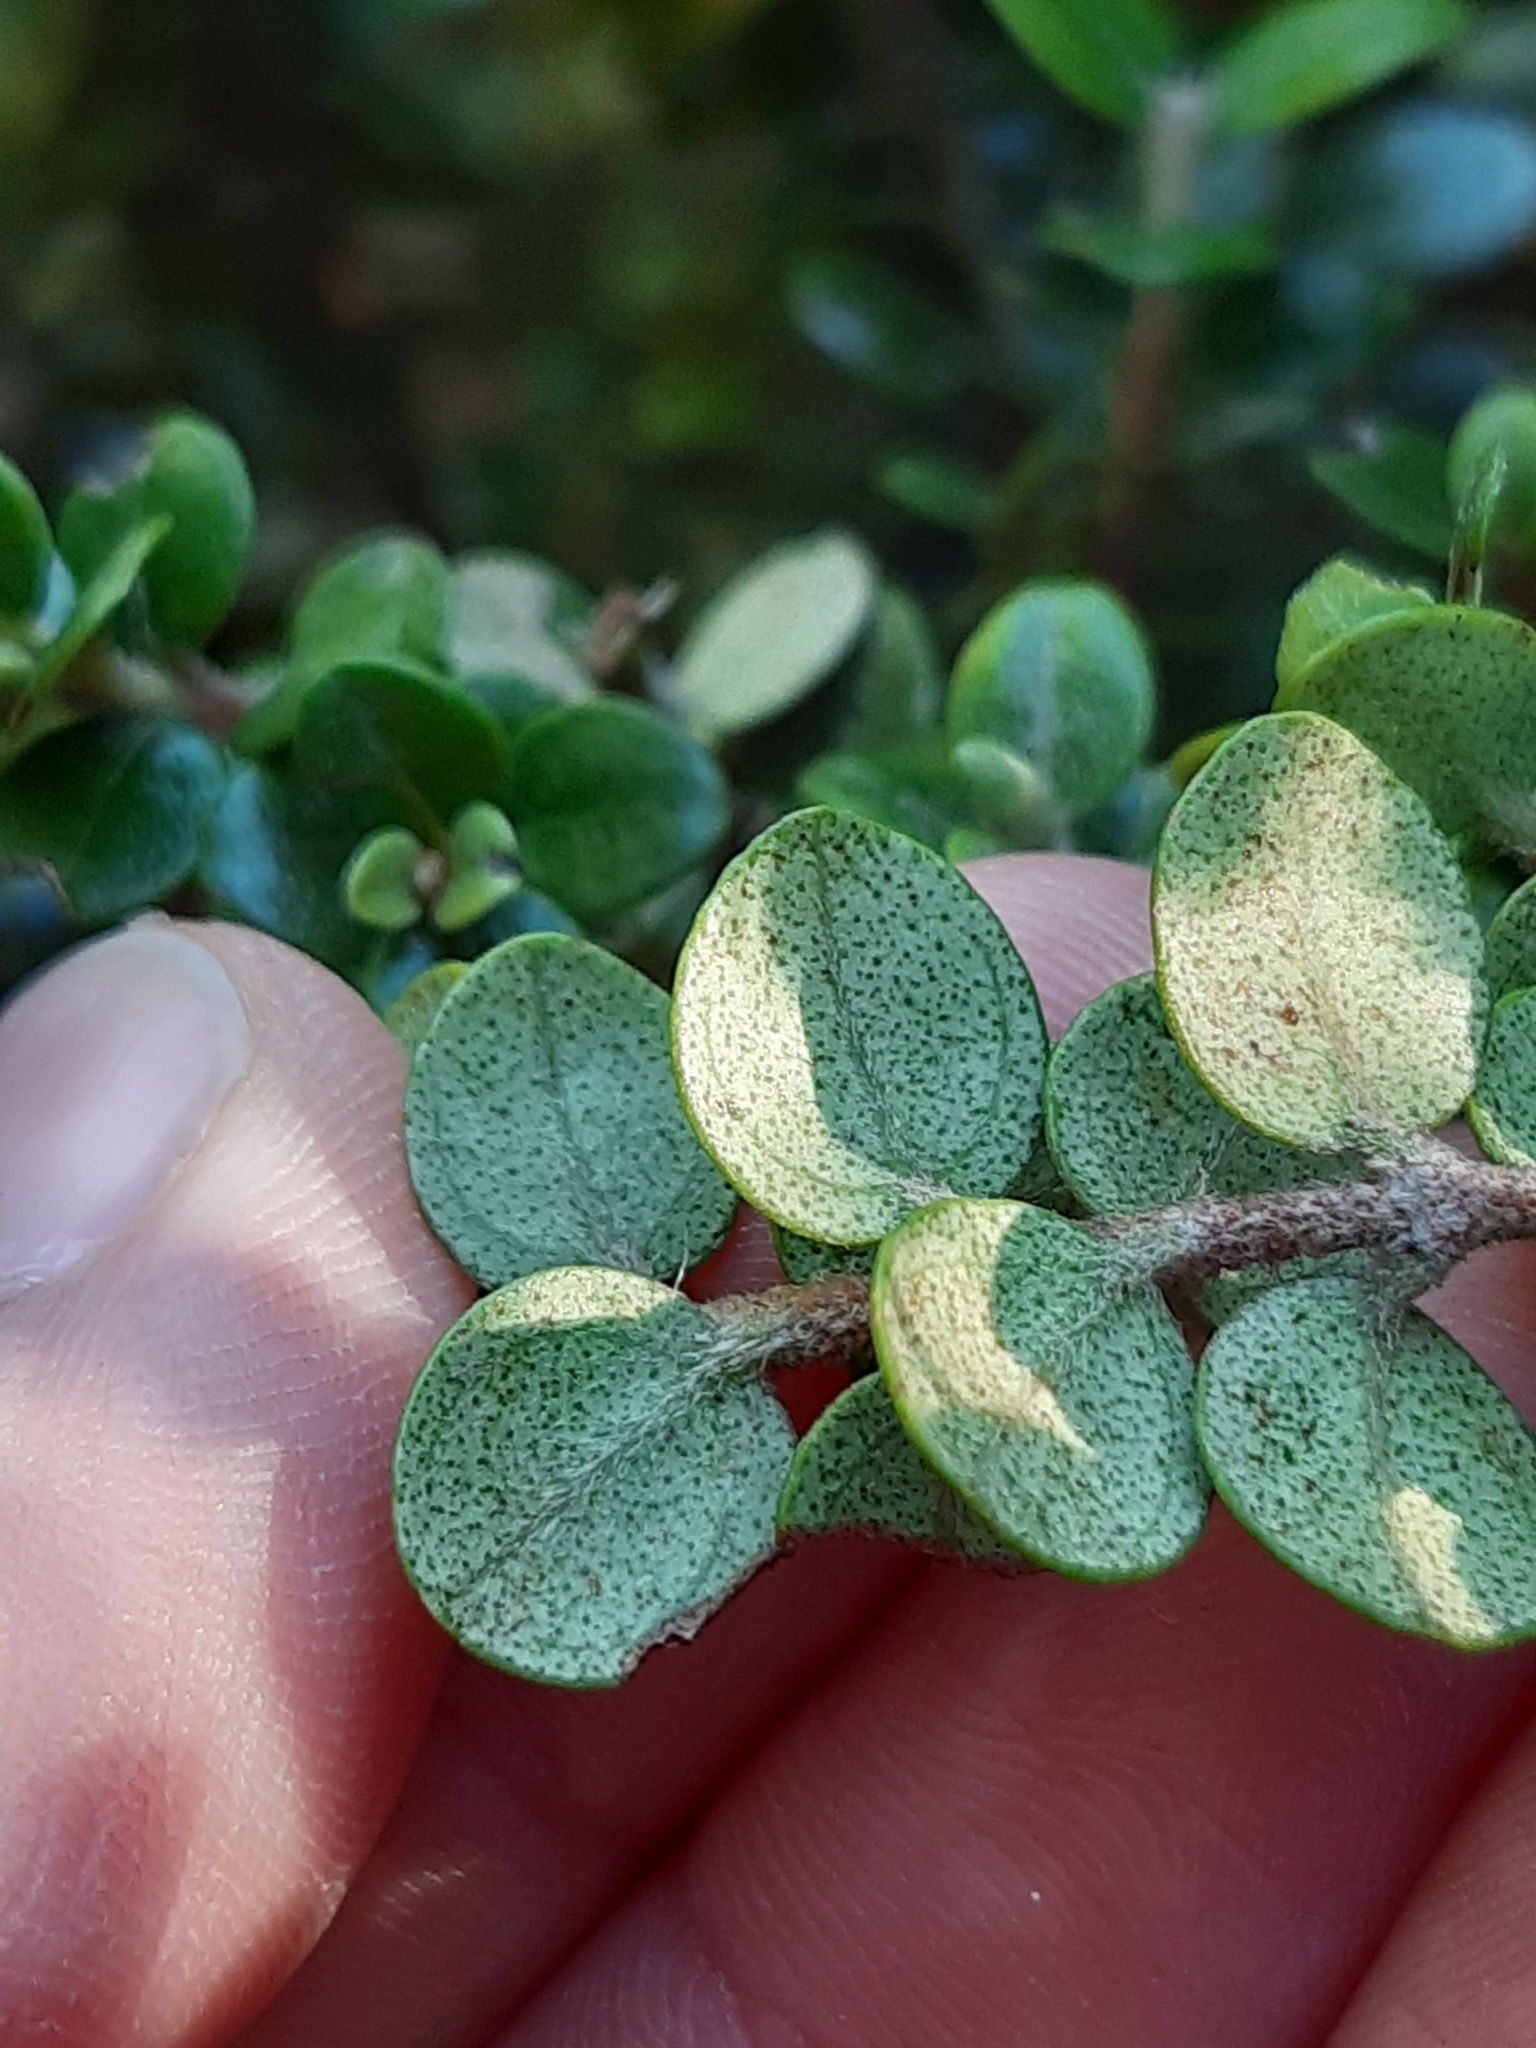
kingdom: Plantae
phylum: Tracheophyta
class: Magnoliopsida
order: Myrtales
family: Myrtaceae
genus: Metrosideros
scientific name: Metrosideros perforata
